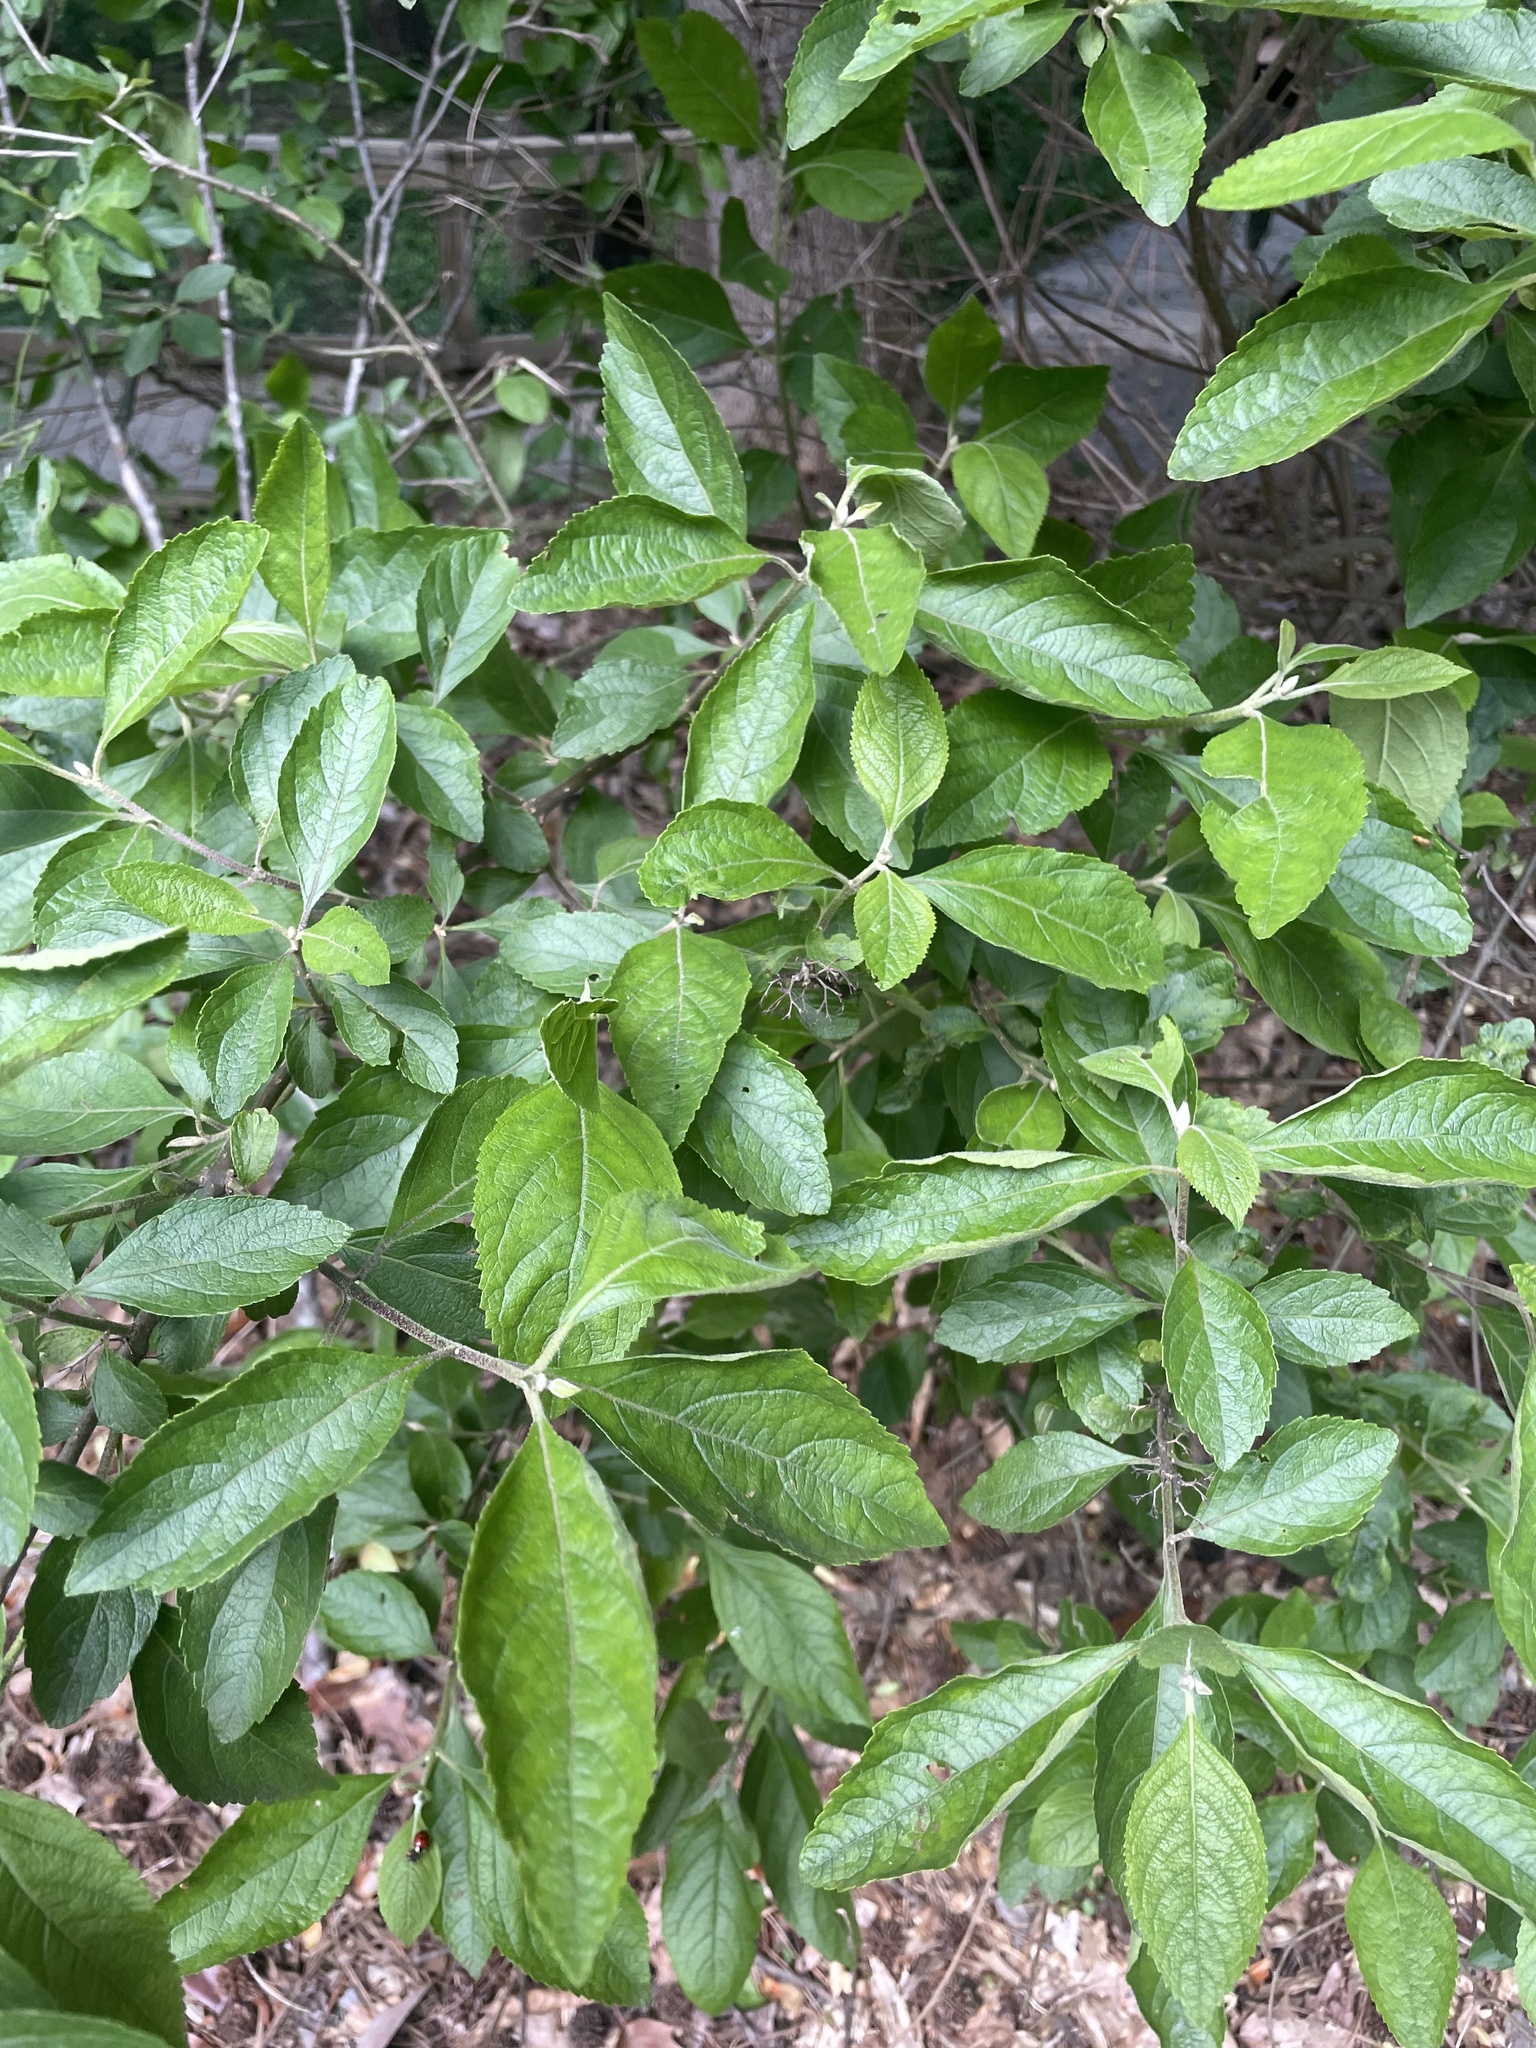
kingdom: Plantae
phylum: Tracheophyta
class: Magnoliopsida
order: Lamiales
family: Lamiaceae
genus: Callicarpa
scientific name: Callicarpa americana
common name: American beautyberry
